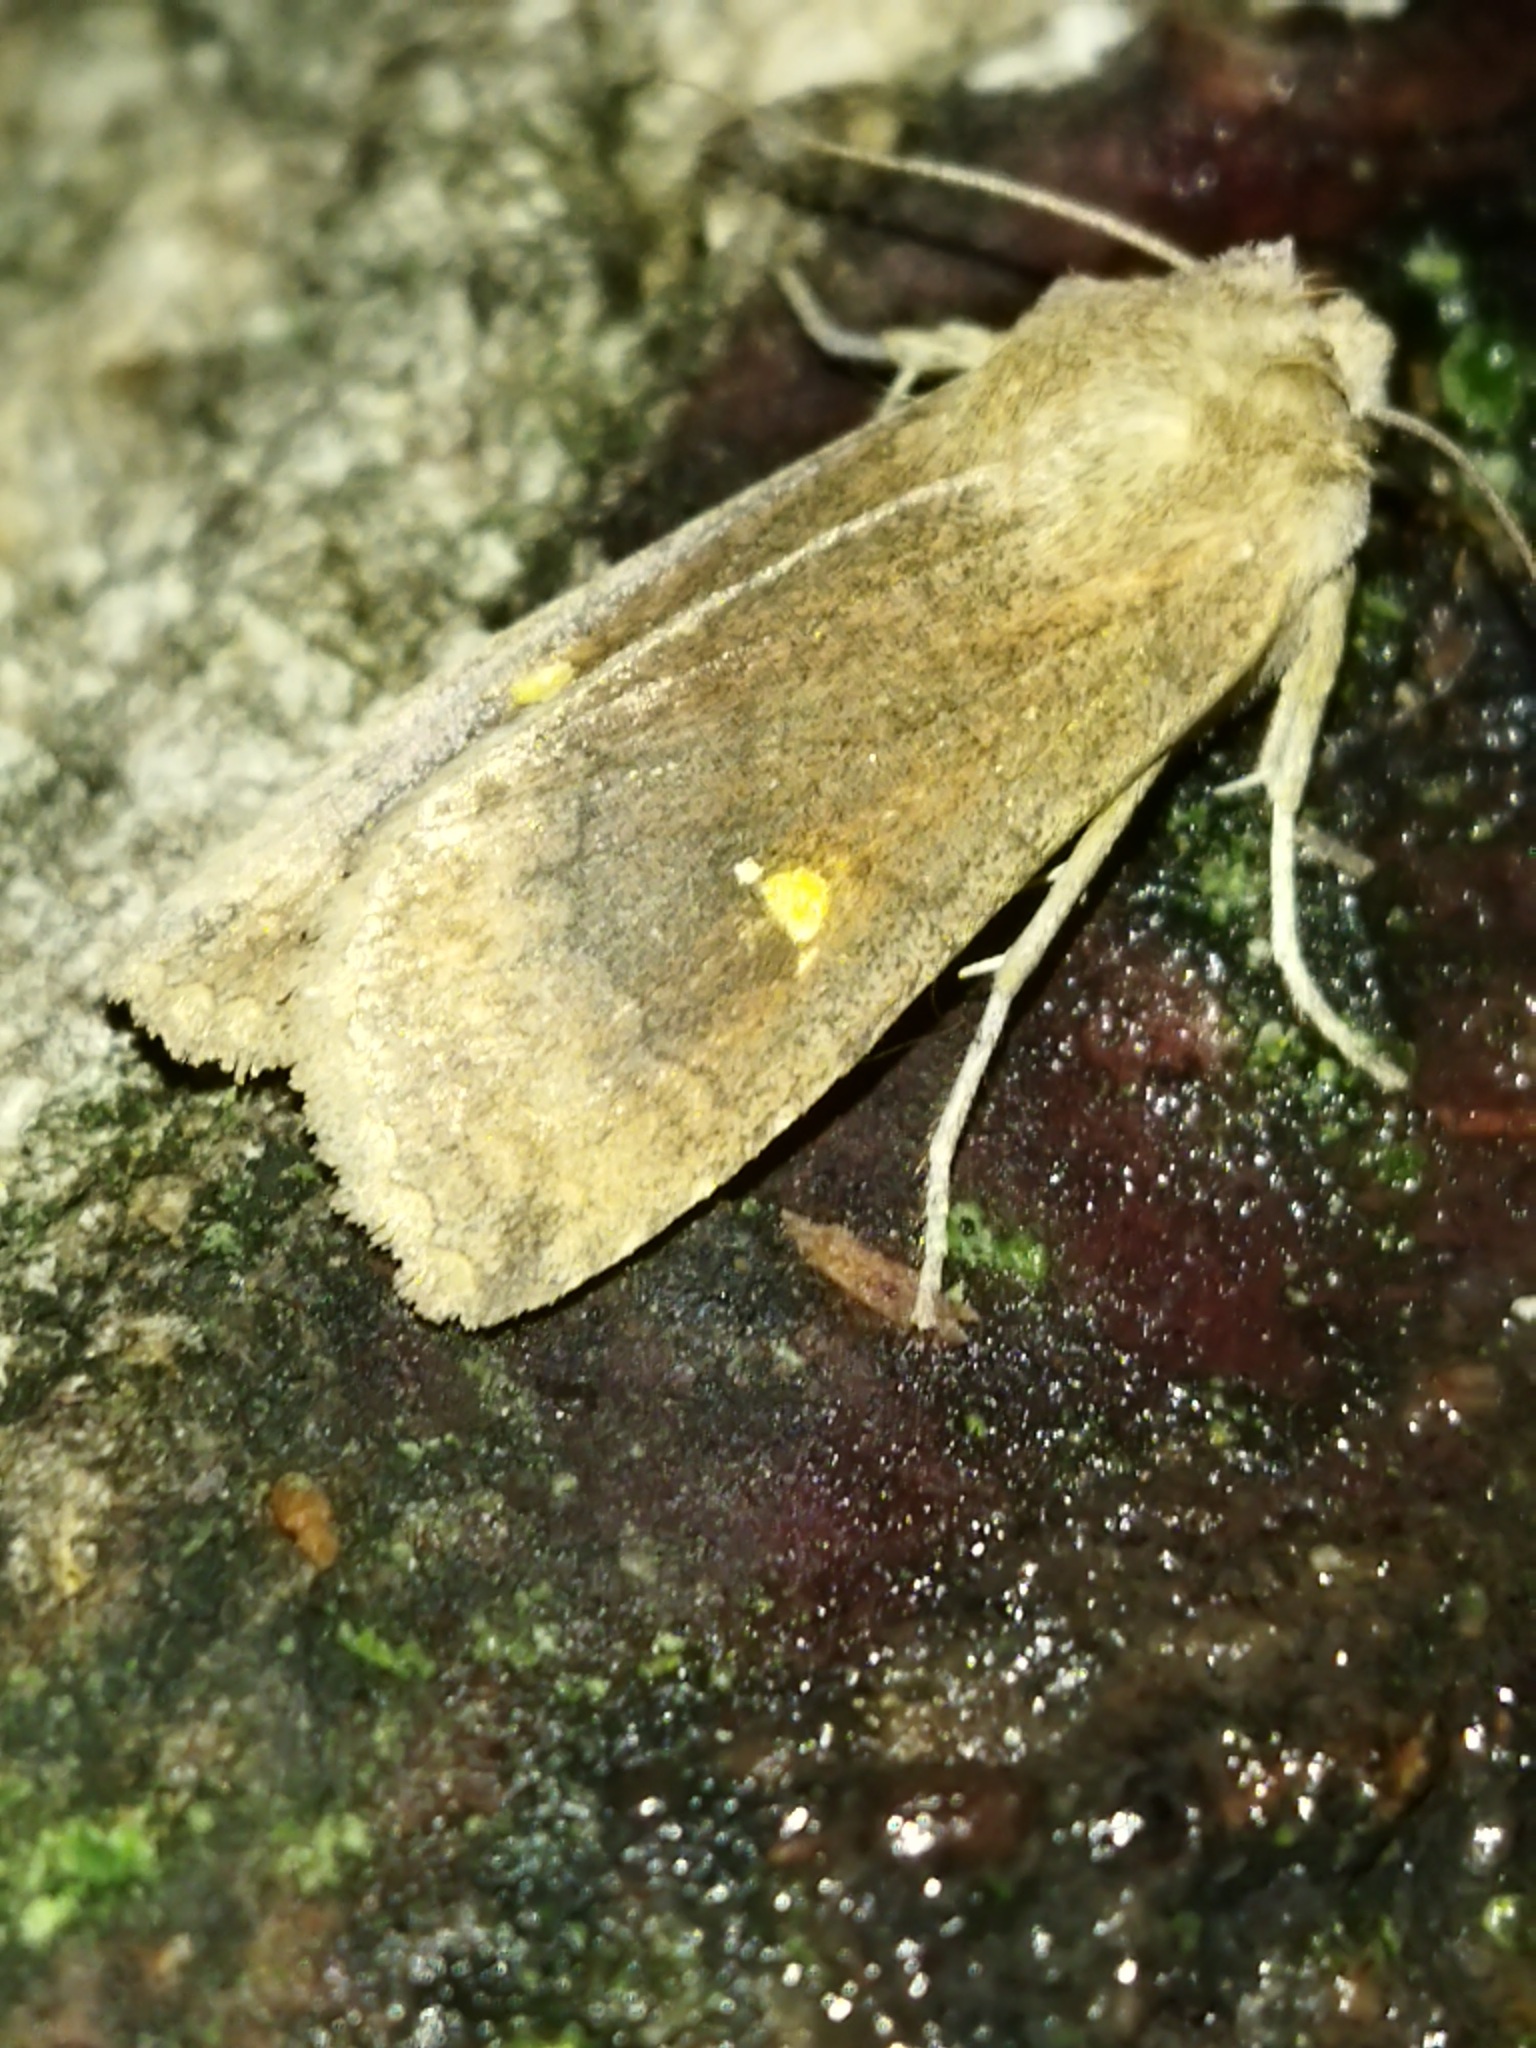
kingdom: Animalia
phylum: Arthropoda
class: Insecta
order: Lepidoptera
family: Noctuidae
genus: Eupsilia
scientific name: Eupsilia transversa
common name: Satellite
